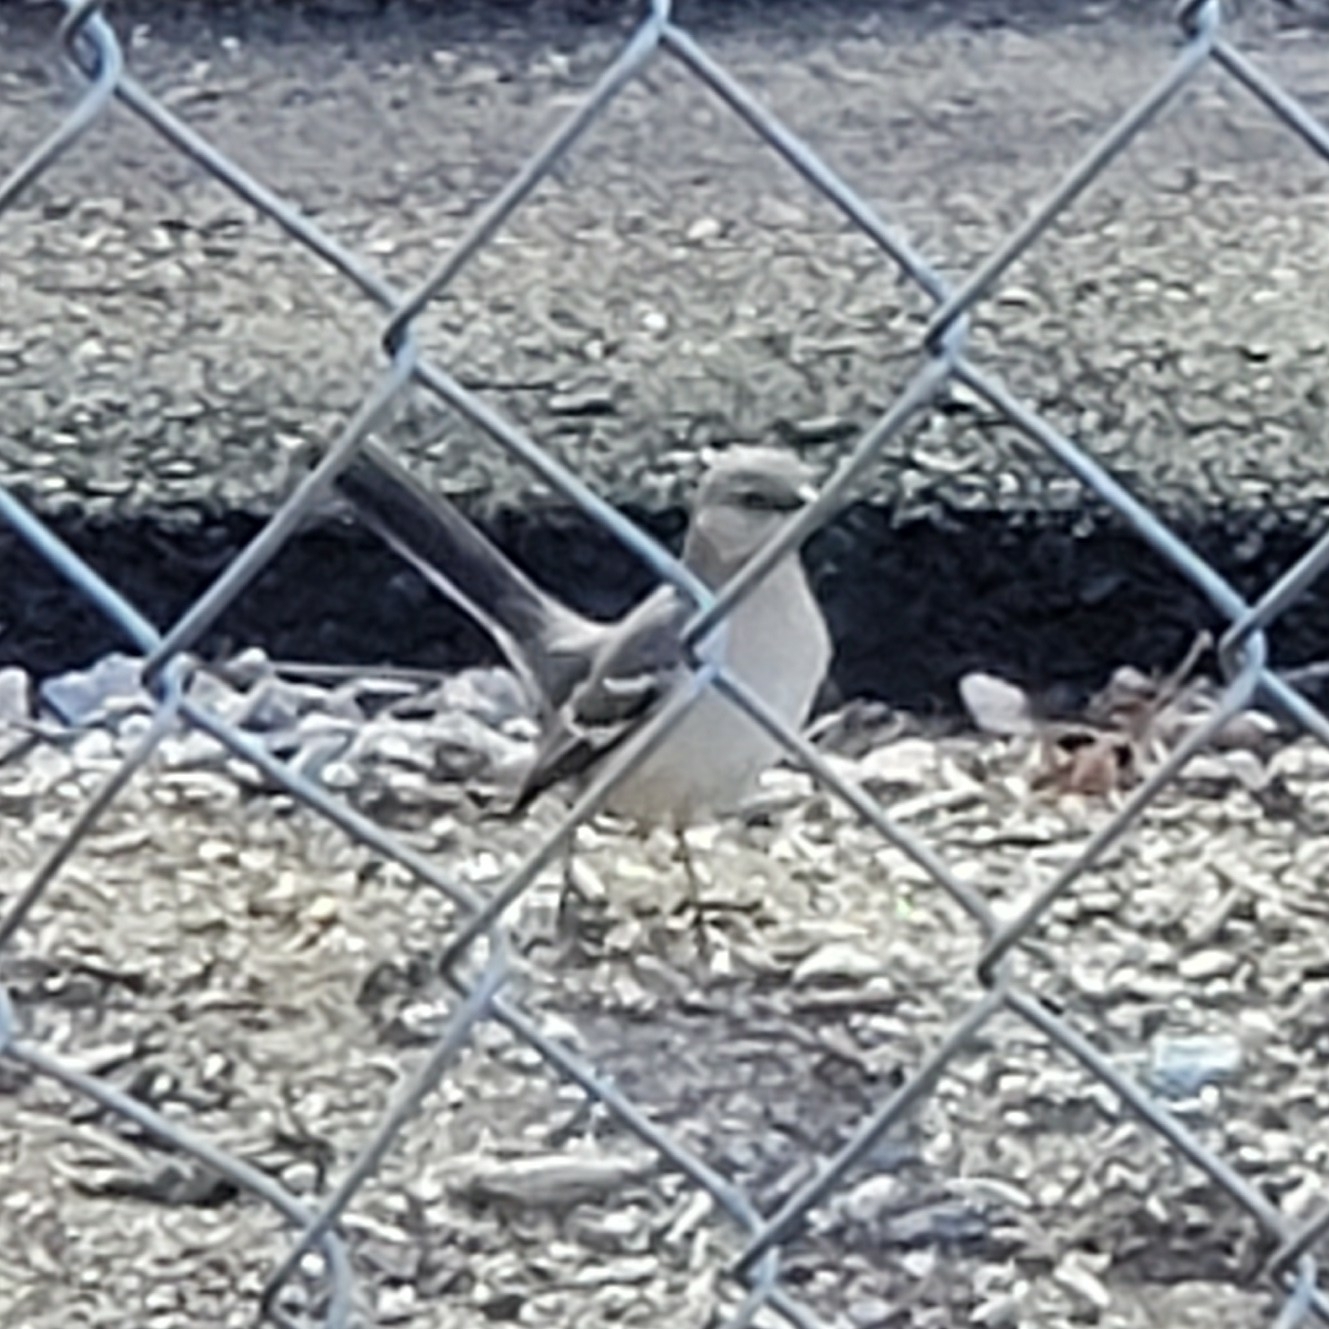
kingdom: Animalia
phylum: Chordata
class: Aves
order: Passeriformes
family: Mimidae
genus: Mimus
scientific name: Mimus polyglottos
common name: Northern mockingbird
